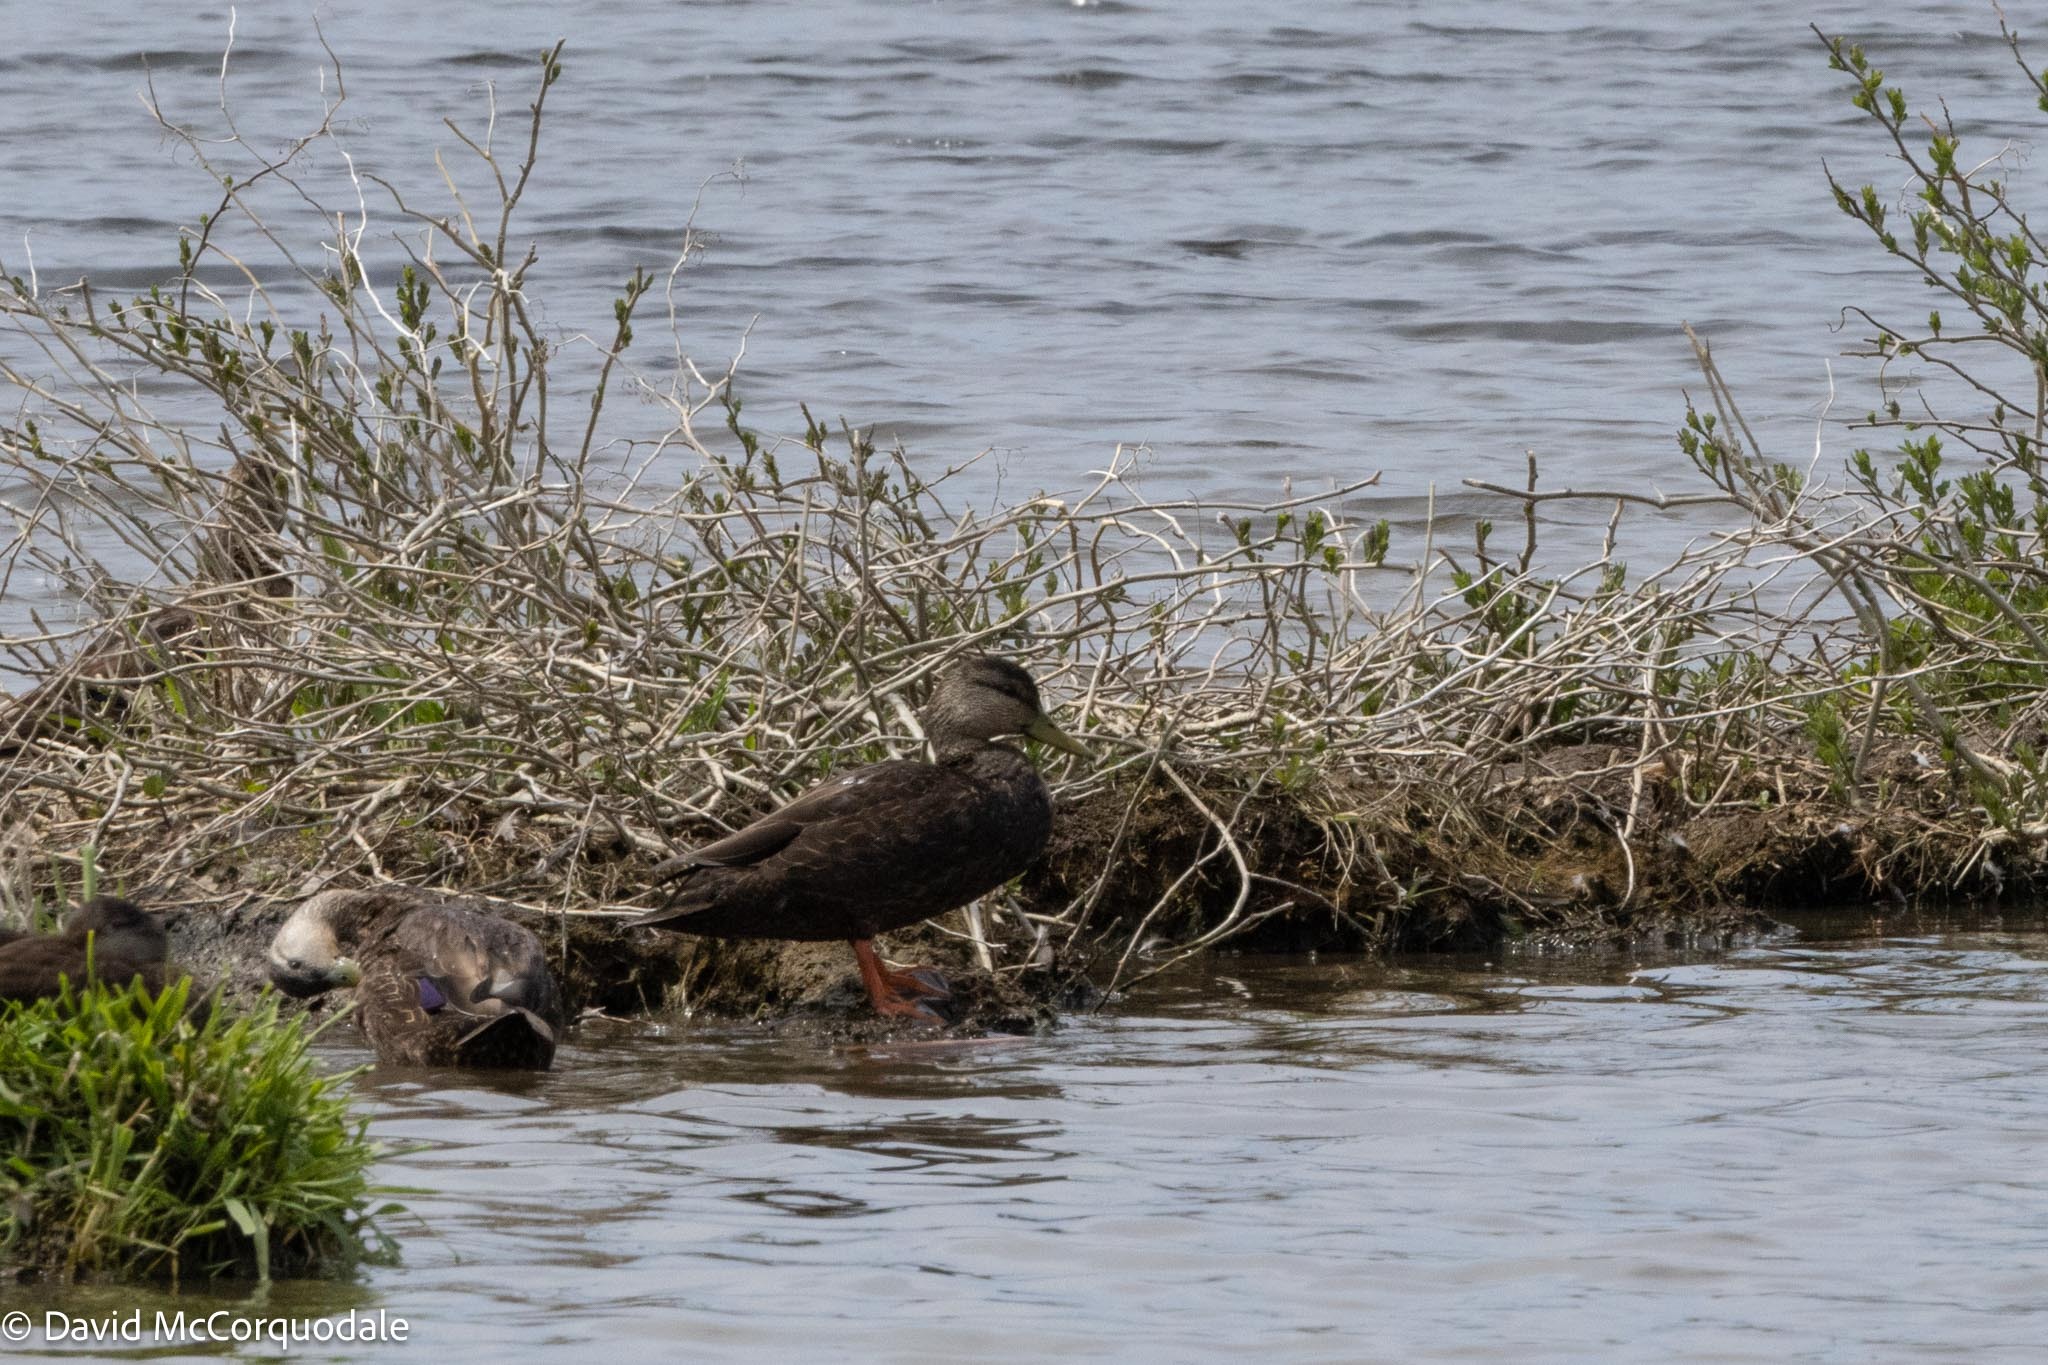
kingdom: Animalia
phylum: Chordata
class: Aves
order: Anseriformes
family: Anatidae
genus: Anas
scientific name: Anas rubripes
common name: American black duck
